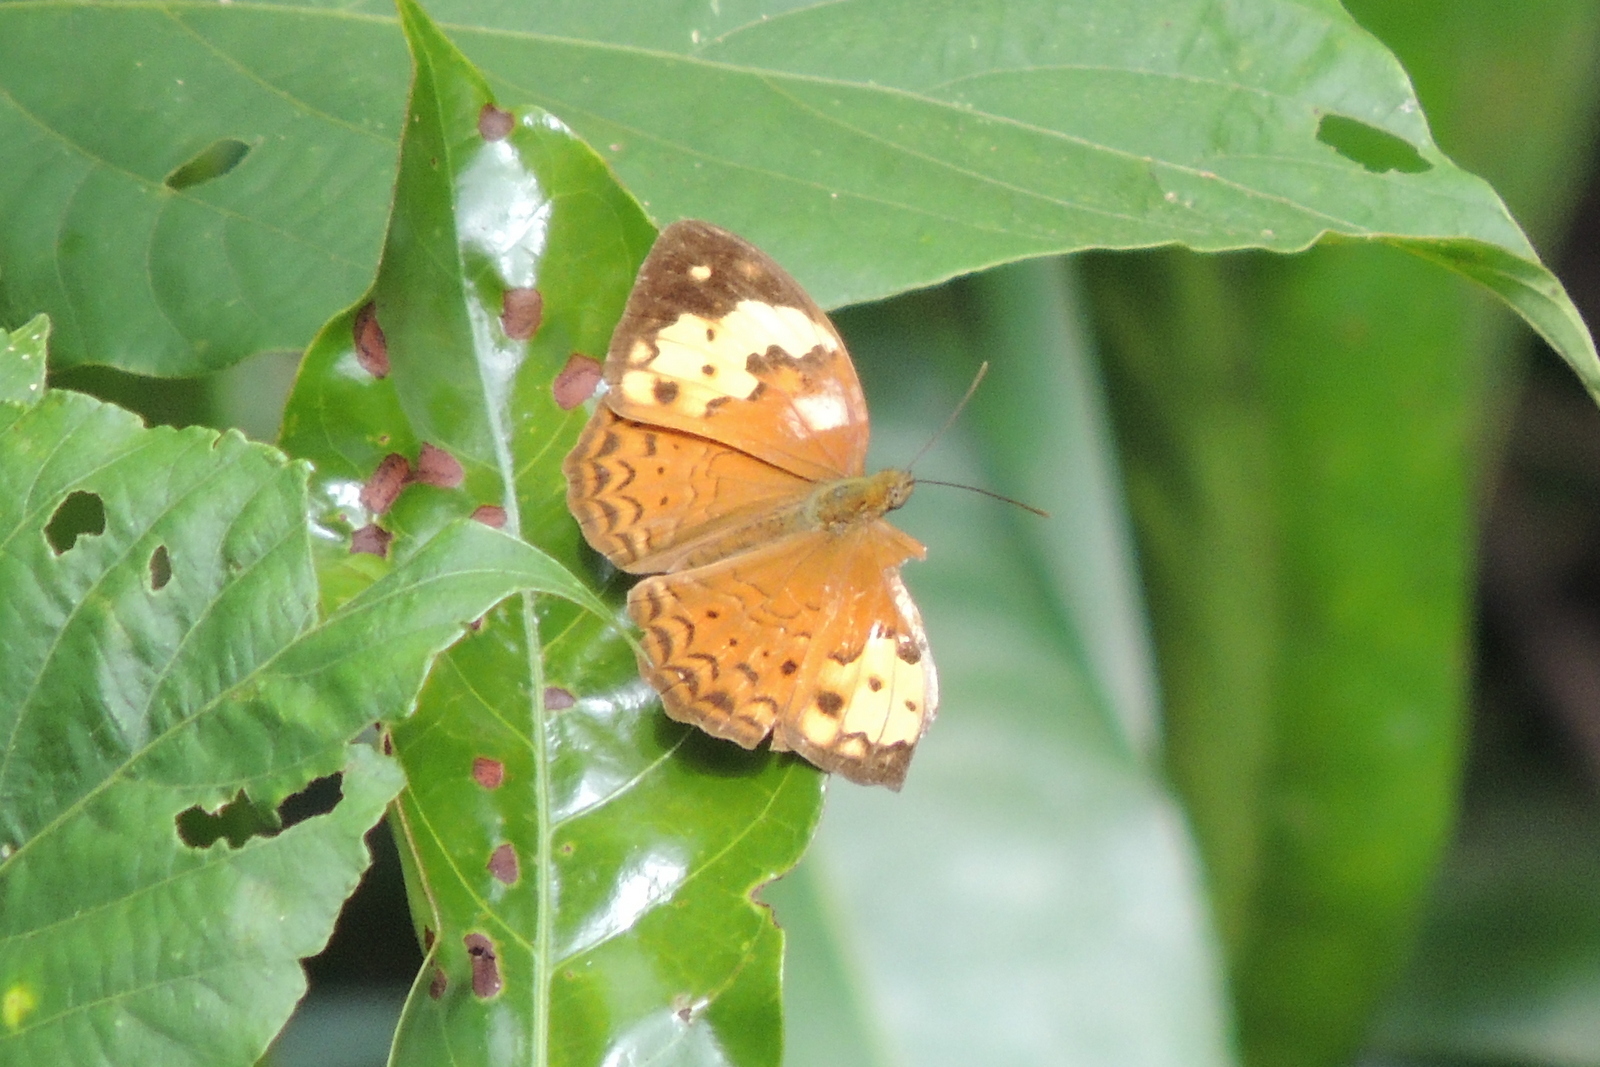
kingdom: Animalia
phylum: Arthropoda
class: Insecta
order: Lepidoptera
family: Nymphalidae
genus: Cupha
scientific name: Cupha erymanthis
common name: Rustic
